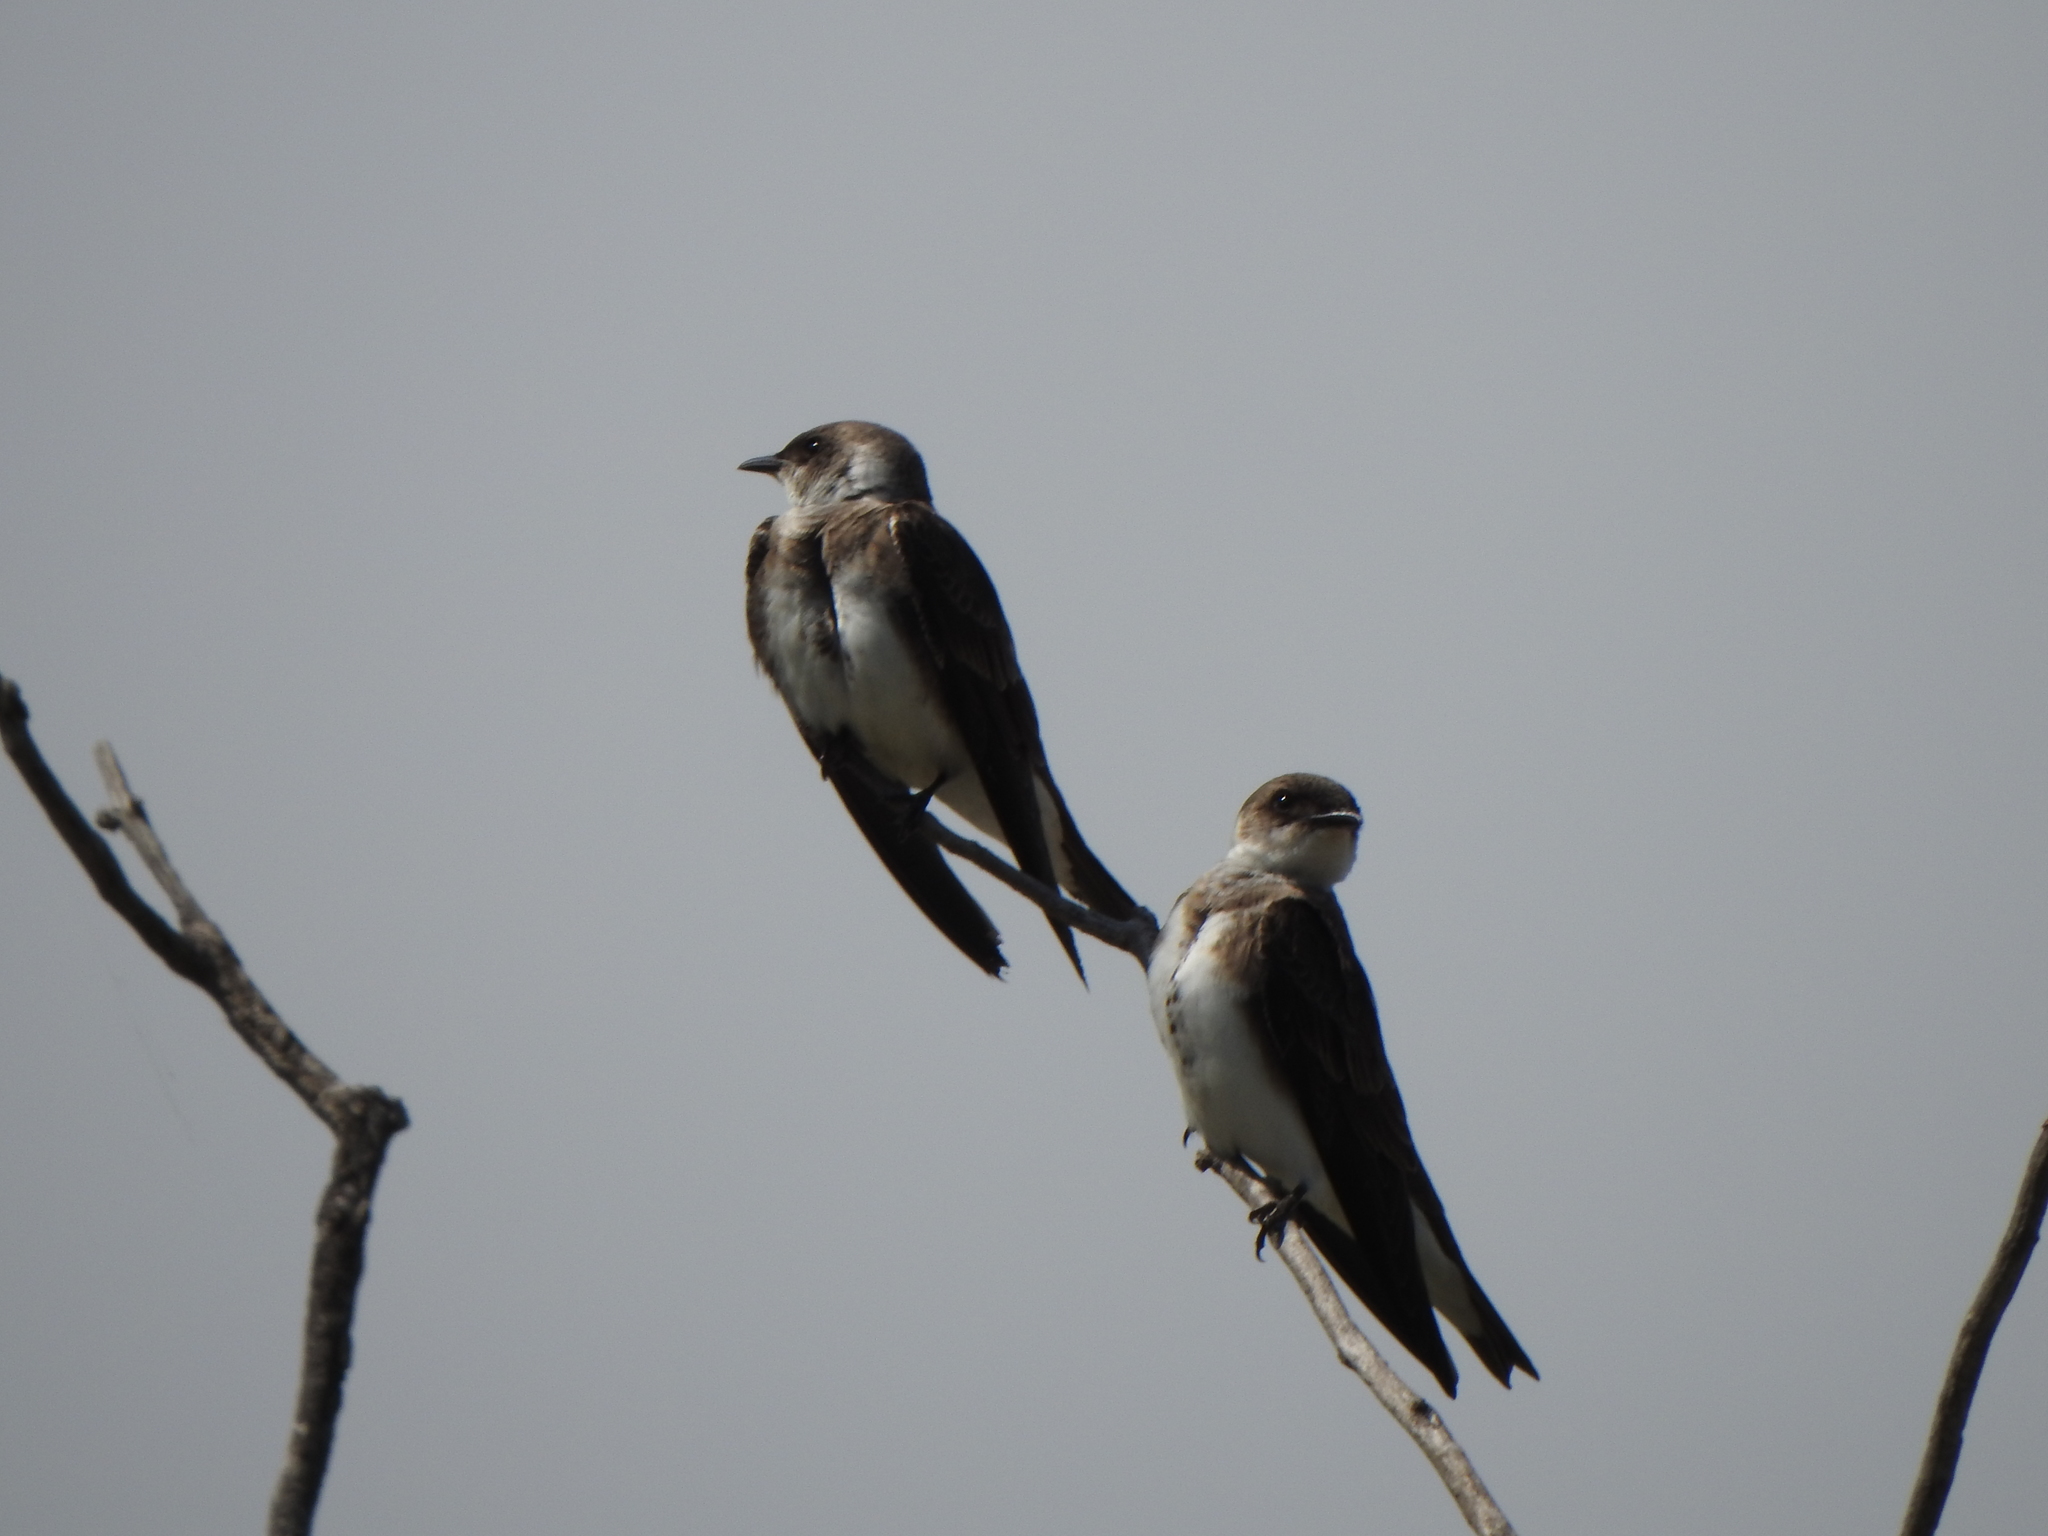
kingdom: Animalia
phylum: Chordata
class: Aves
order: Passeriformes
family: Hirundinidae
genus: Progne
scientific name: Progne tapera
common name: Brown-chested martin
